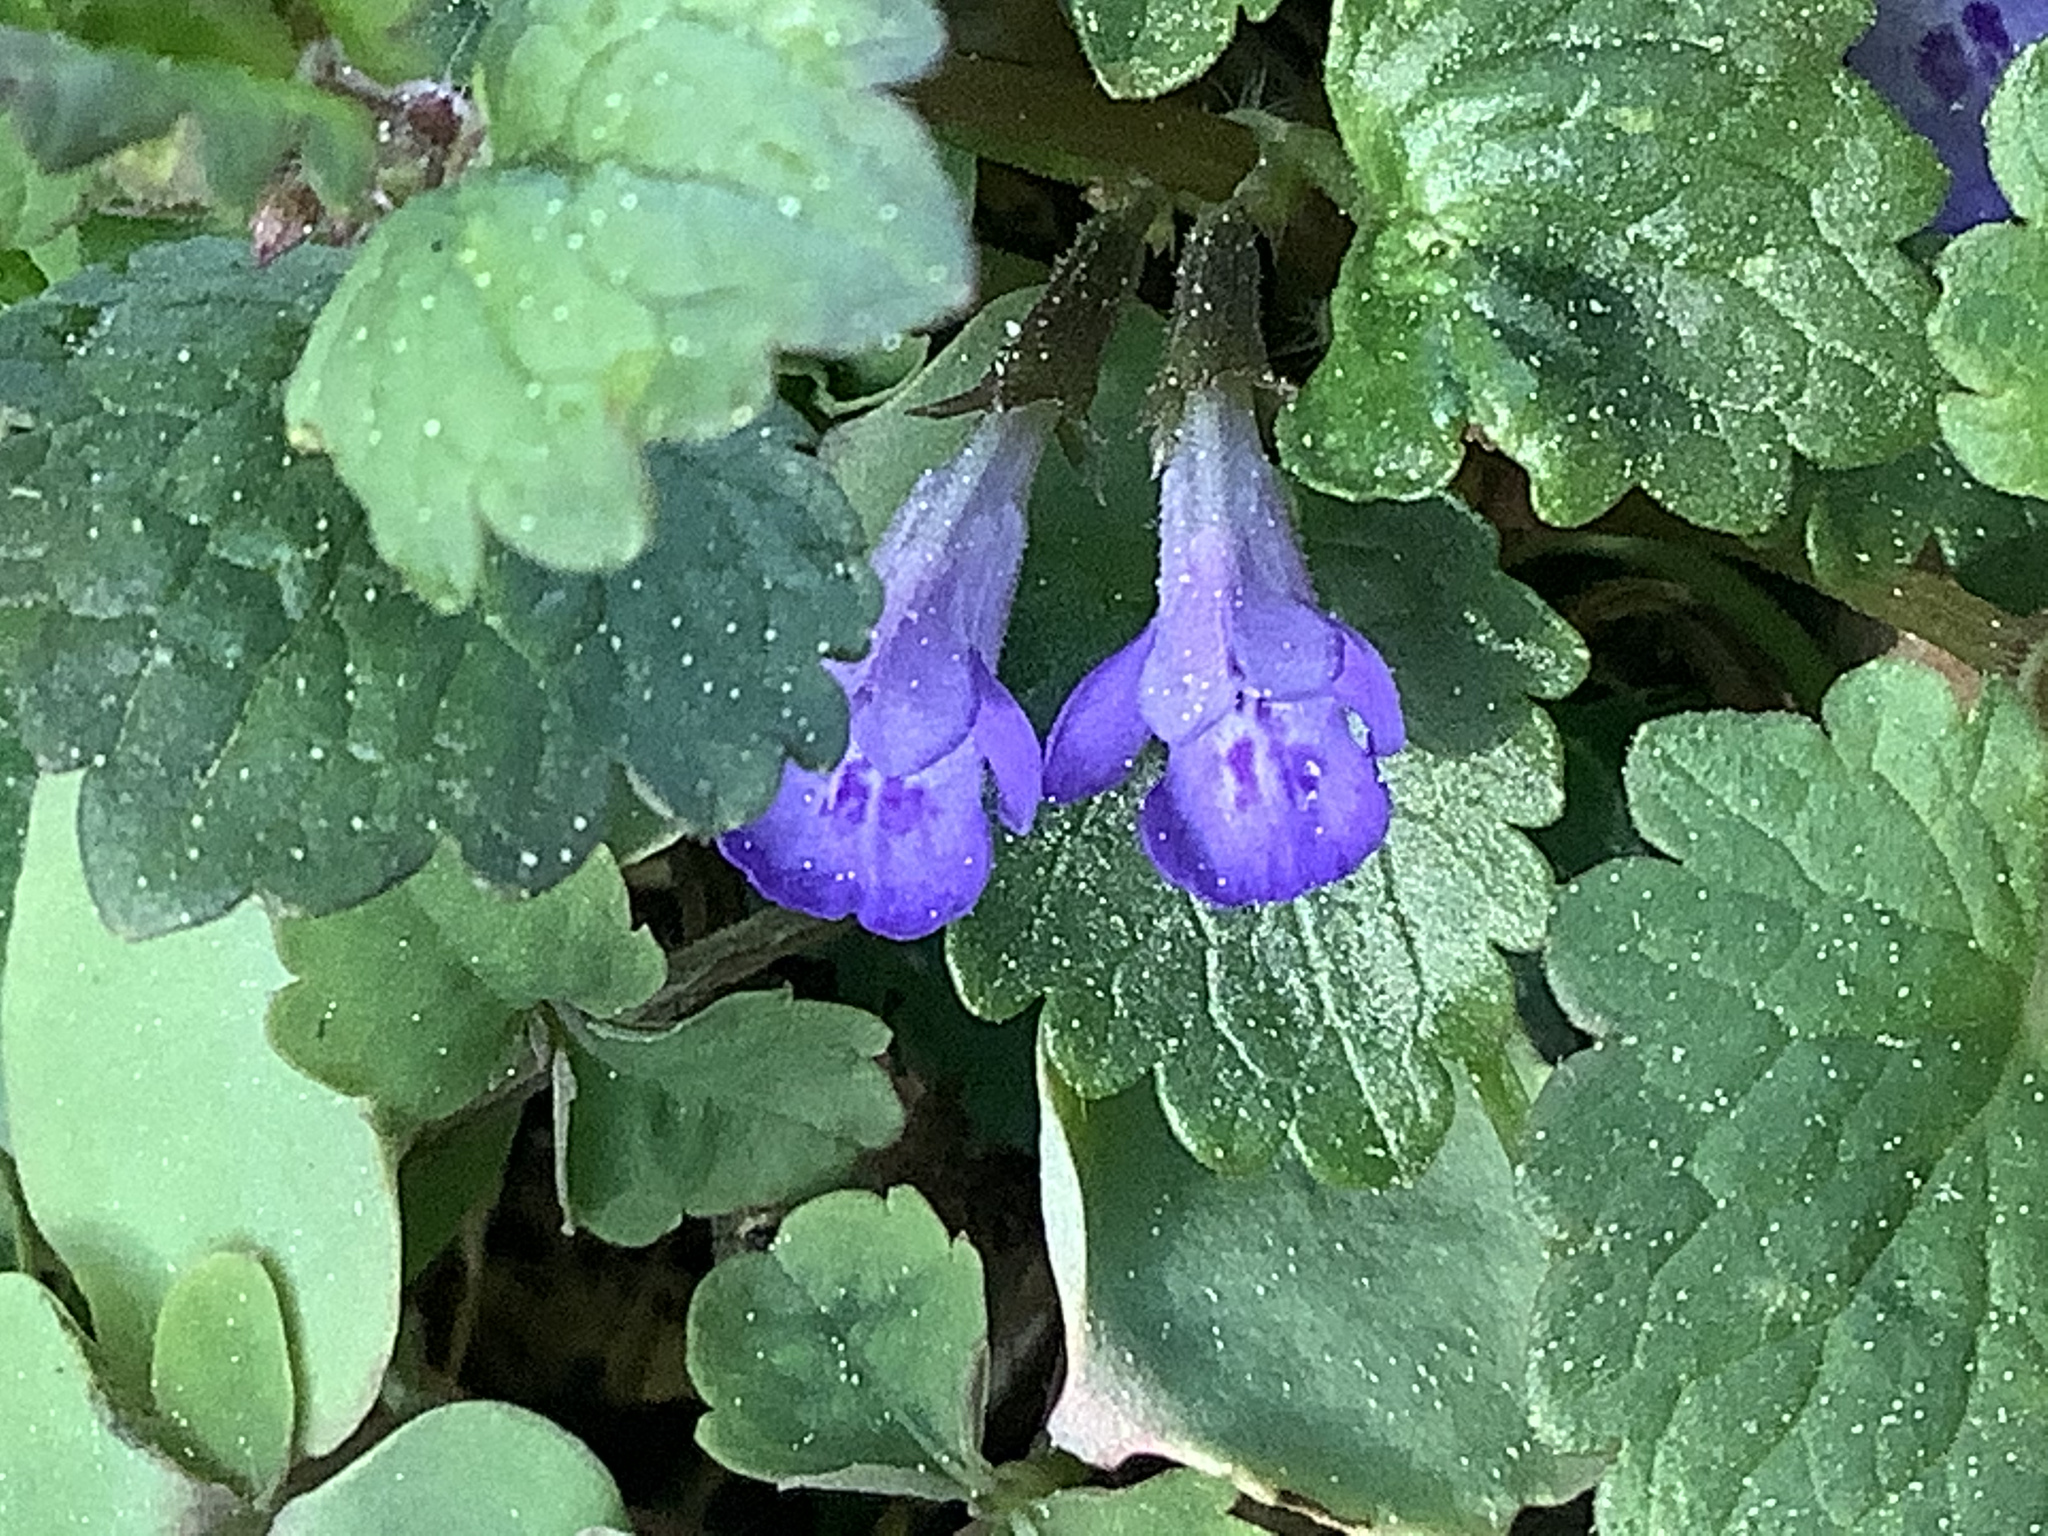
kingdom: Plantae
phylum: Tracheophyta
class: Magnoliopsida
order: Lamiales
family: Lamiaceae
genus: Glechoma
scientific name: Glechoma hederacea
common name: Ground ivy
